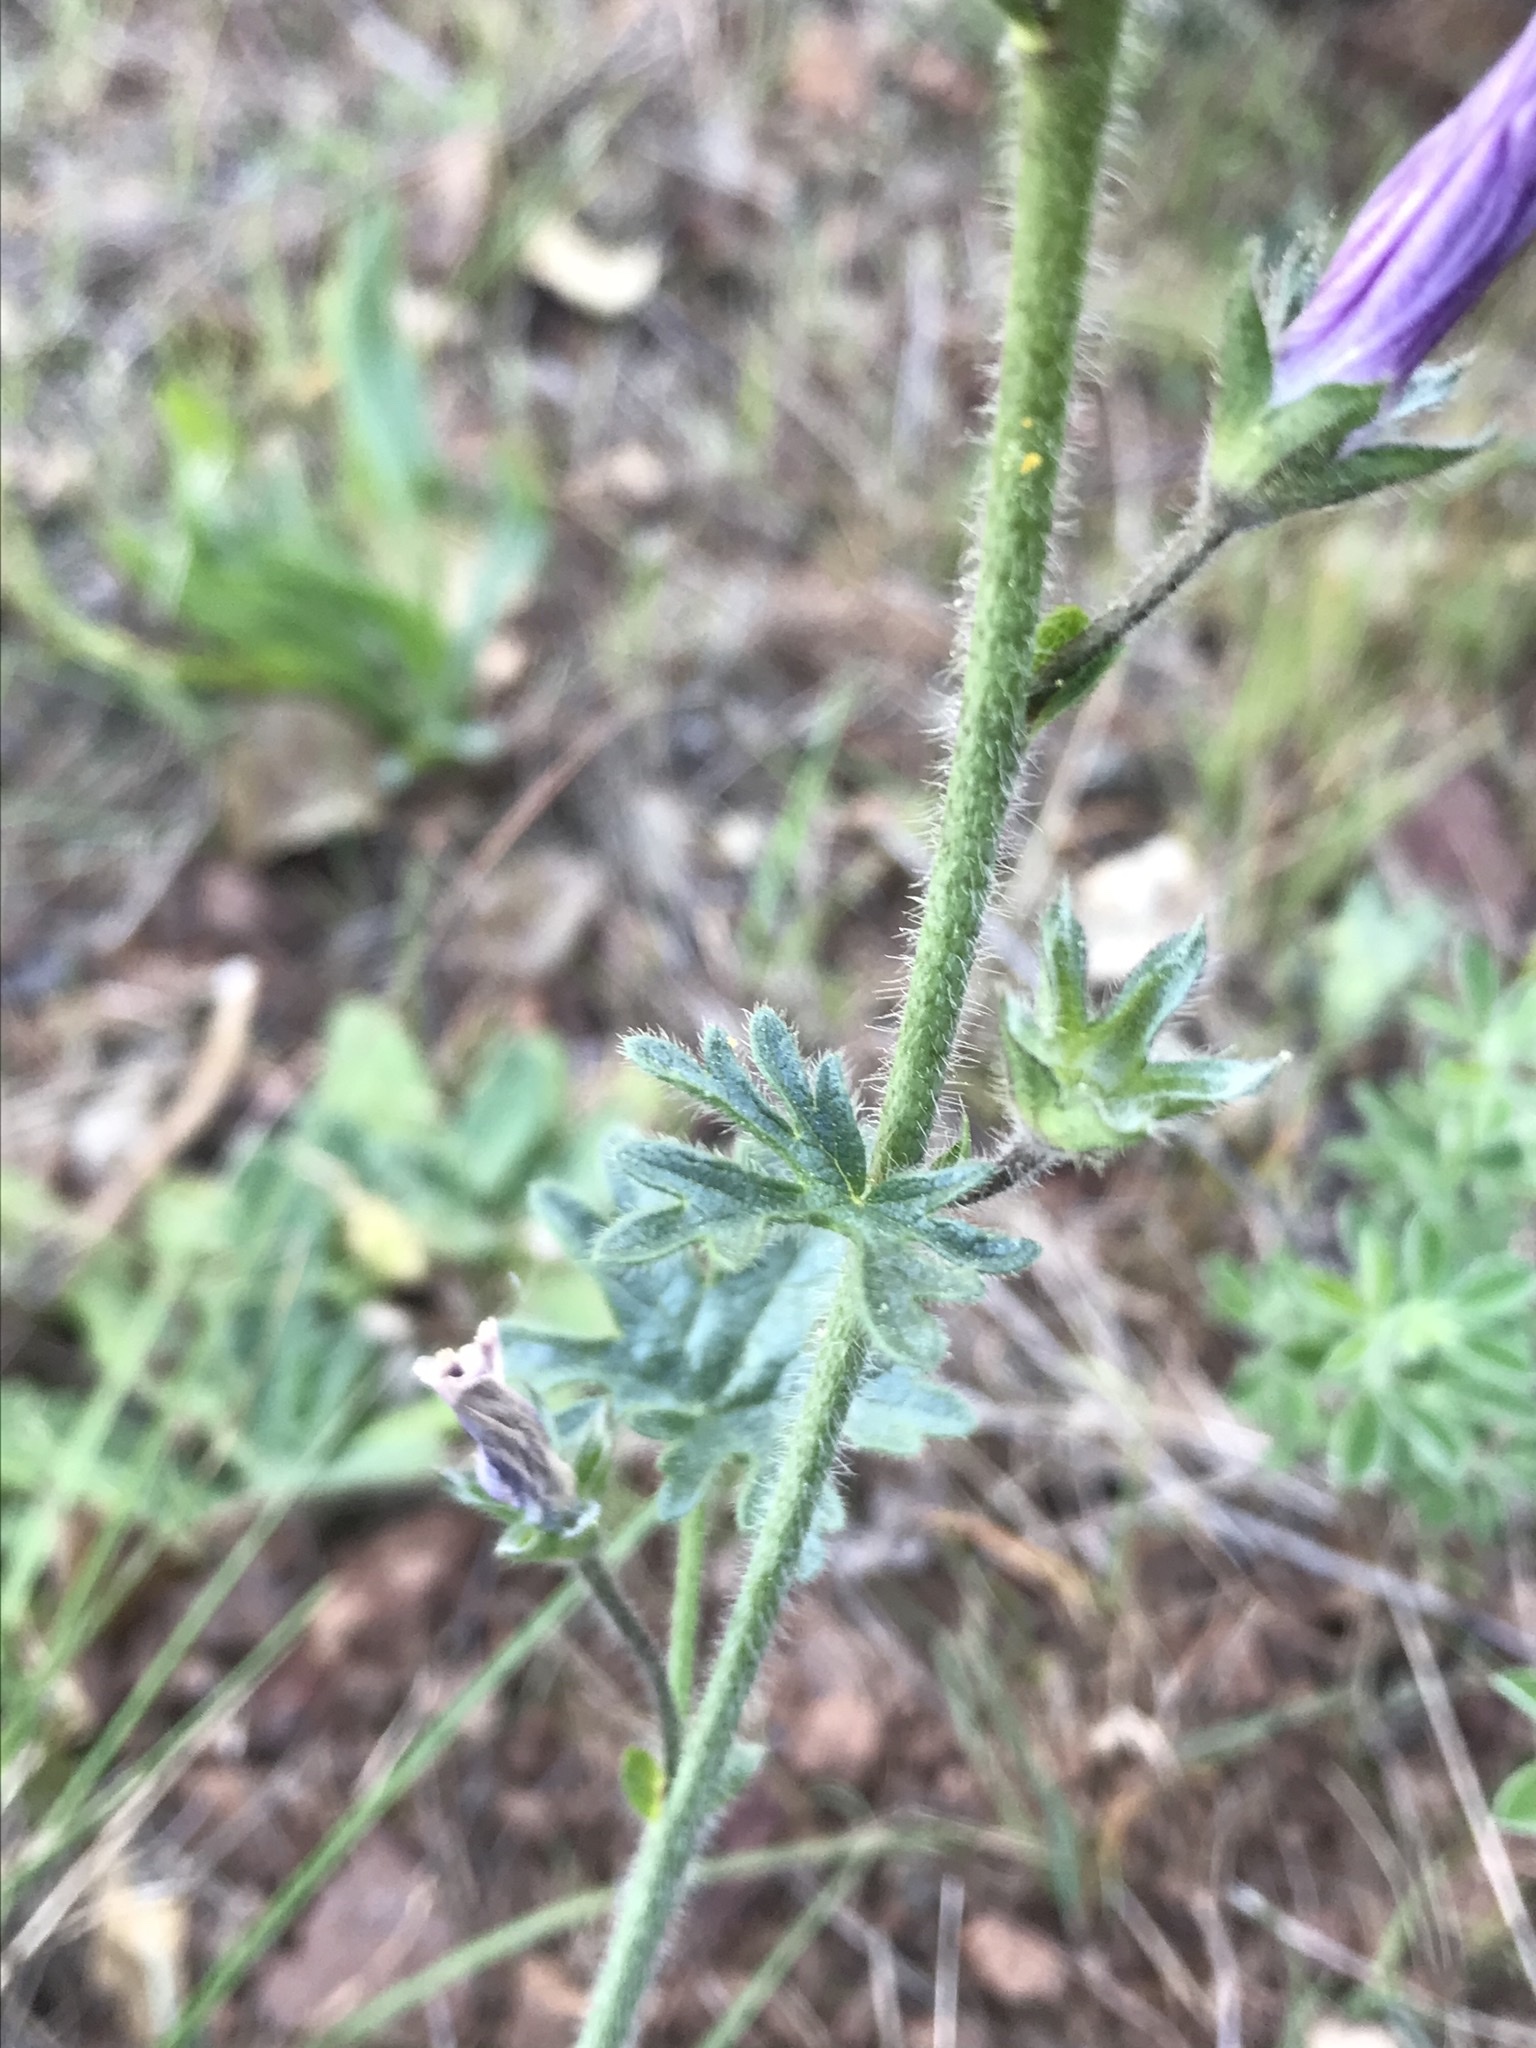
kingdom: Plantae
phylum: Tracheophyta
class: Magnoliopsida
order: Malvales
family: Malvaceae
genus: Sidalcea
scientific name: Sidalcea malviflora
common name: Greek mallow
